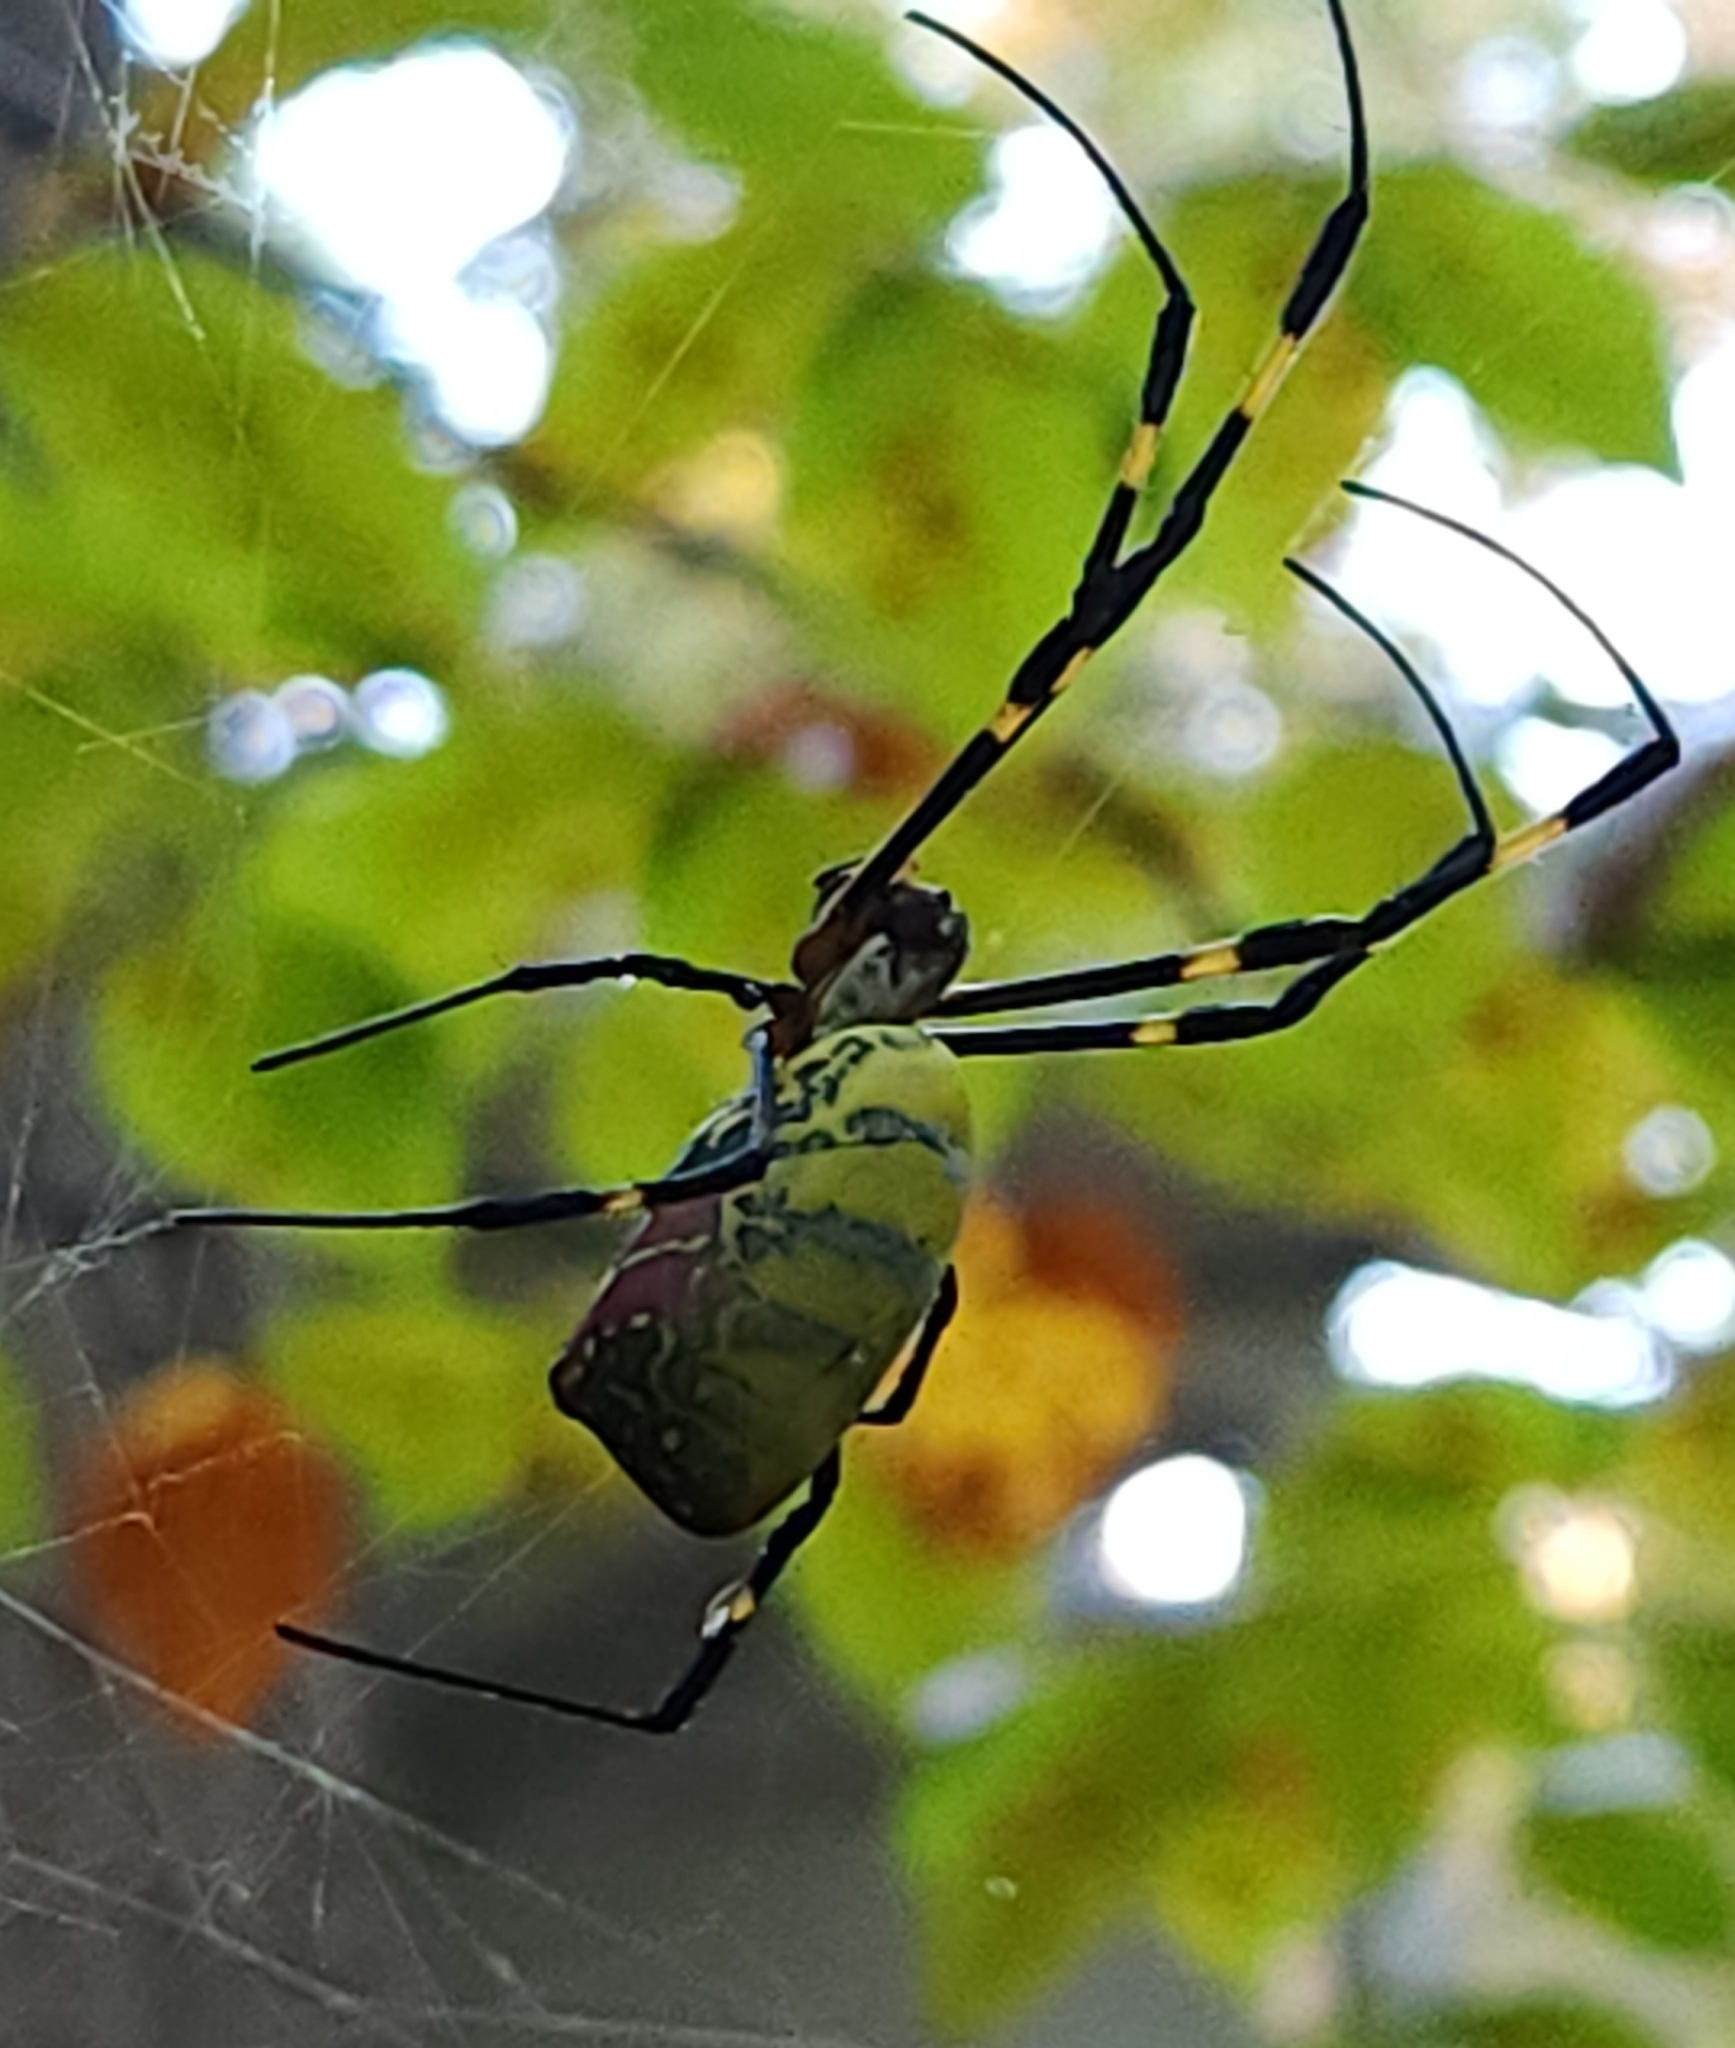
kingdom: Animalia
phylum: Arthropoda
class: Arachnida
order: Araneae
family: Araneidae
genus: Trichonephila
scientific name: Trichonephila clavata
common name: Jorō spider
